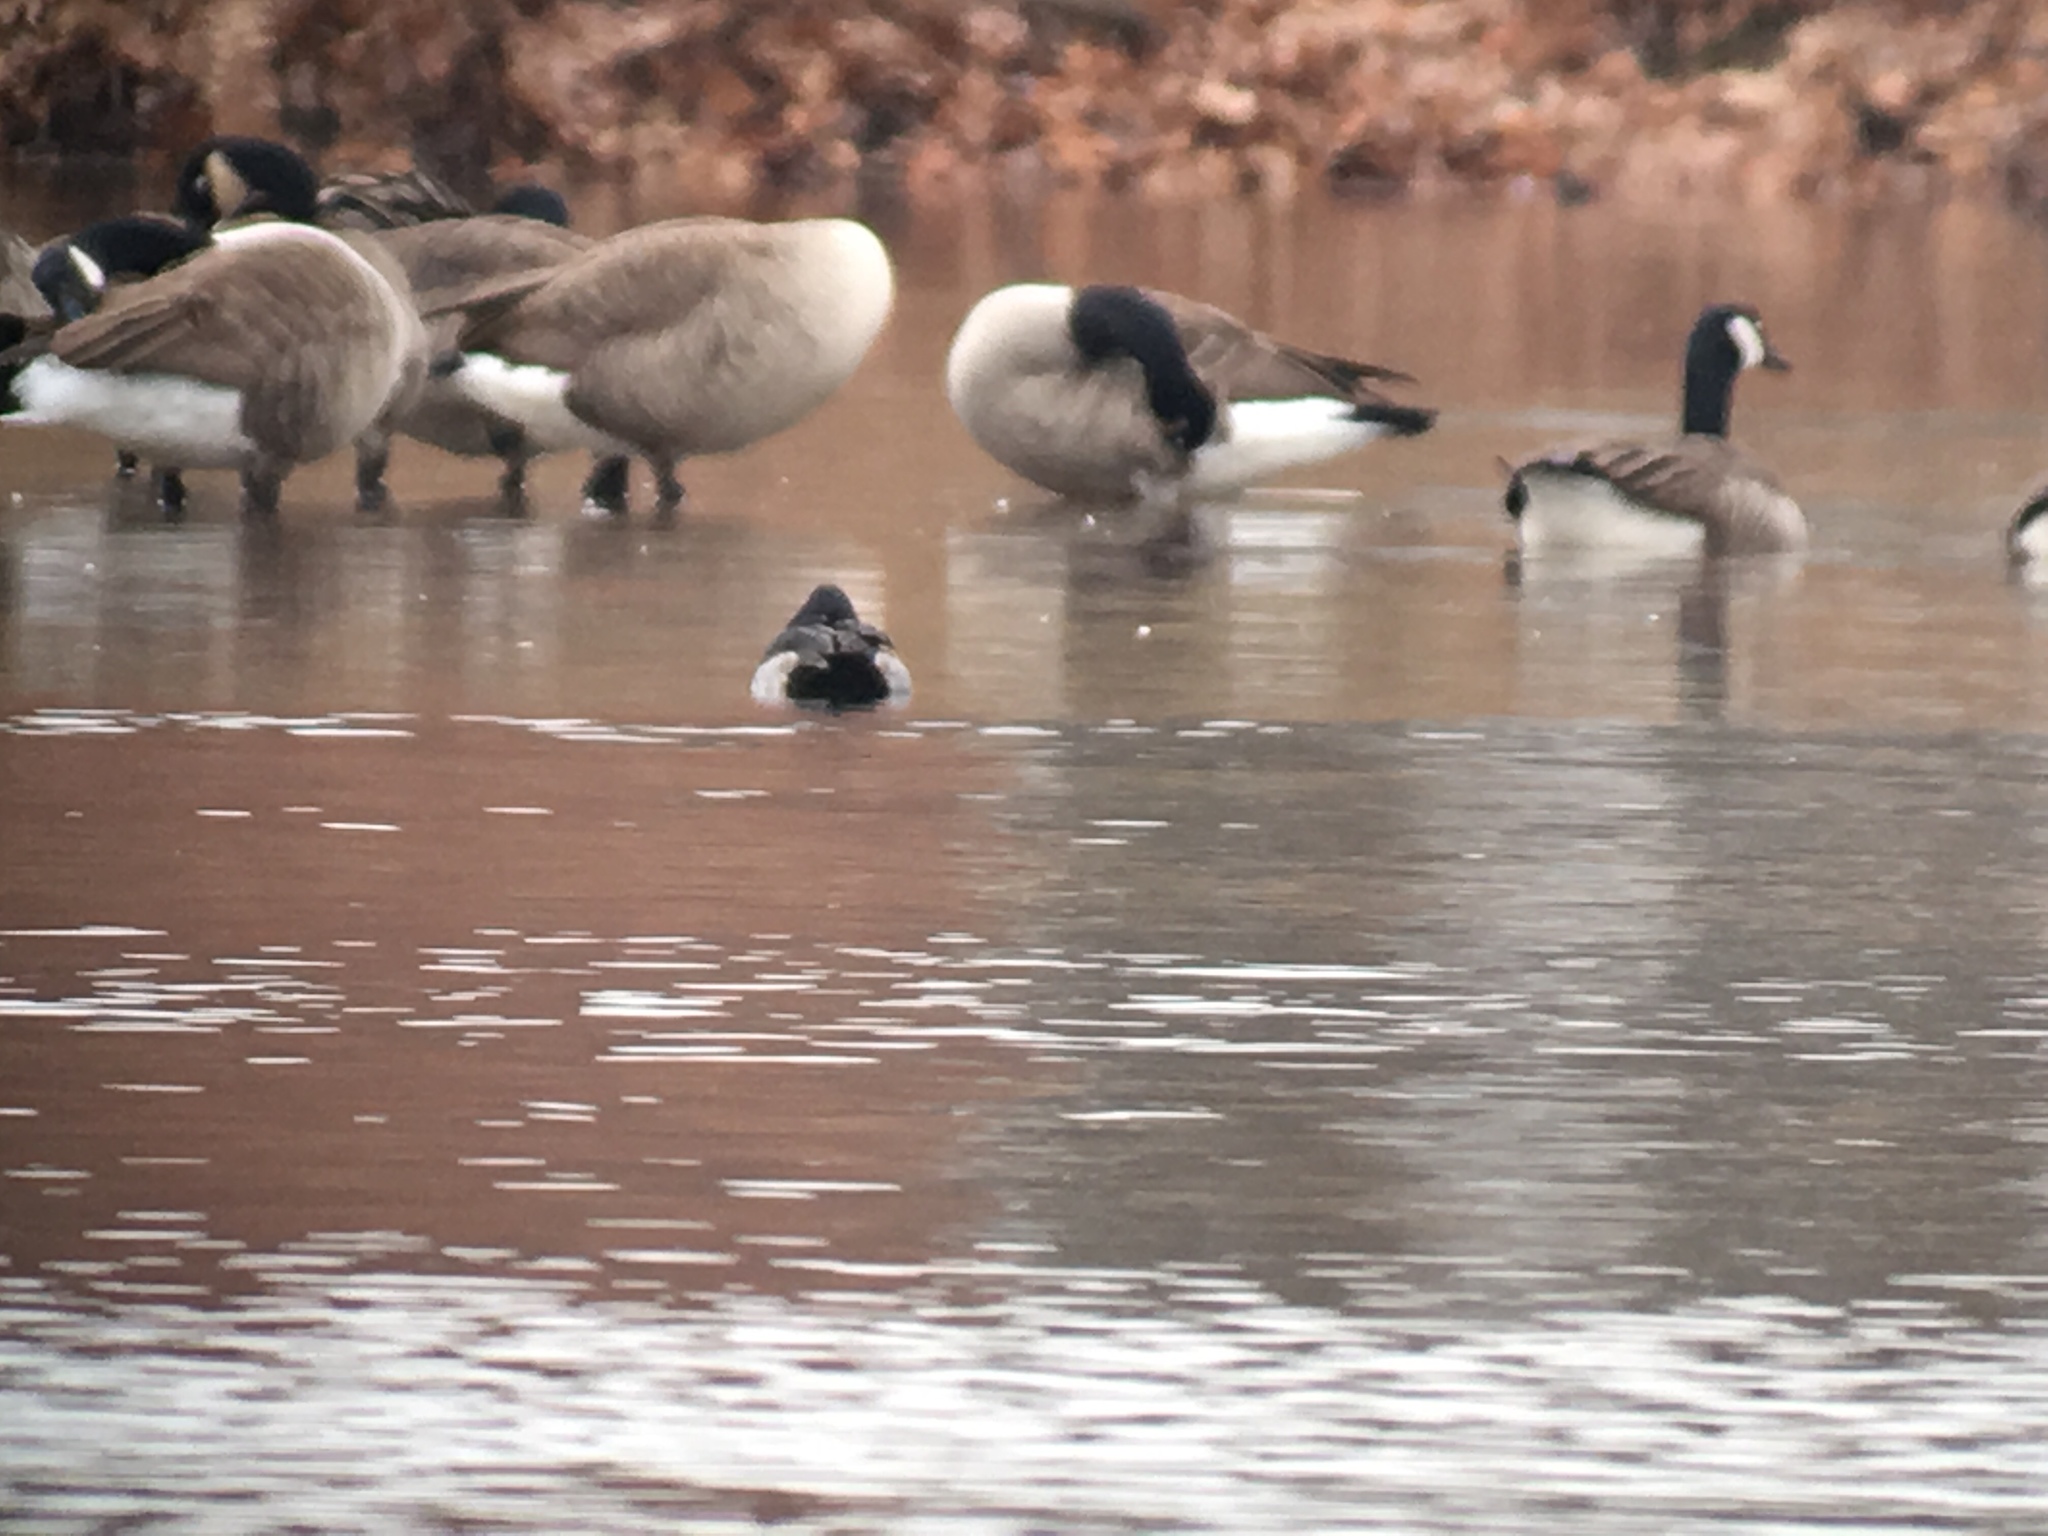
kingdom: Animalia
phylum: Chordata
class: Aves
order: Anseriformes
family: Anatidae
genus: Aythya
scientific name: Aythya collaris
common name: Ring-necked duck
